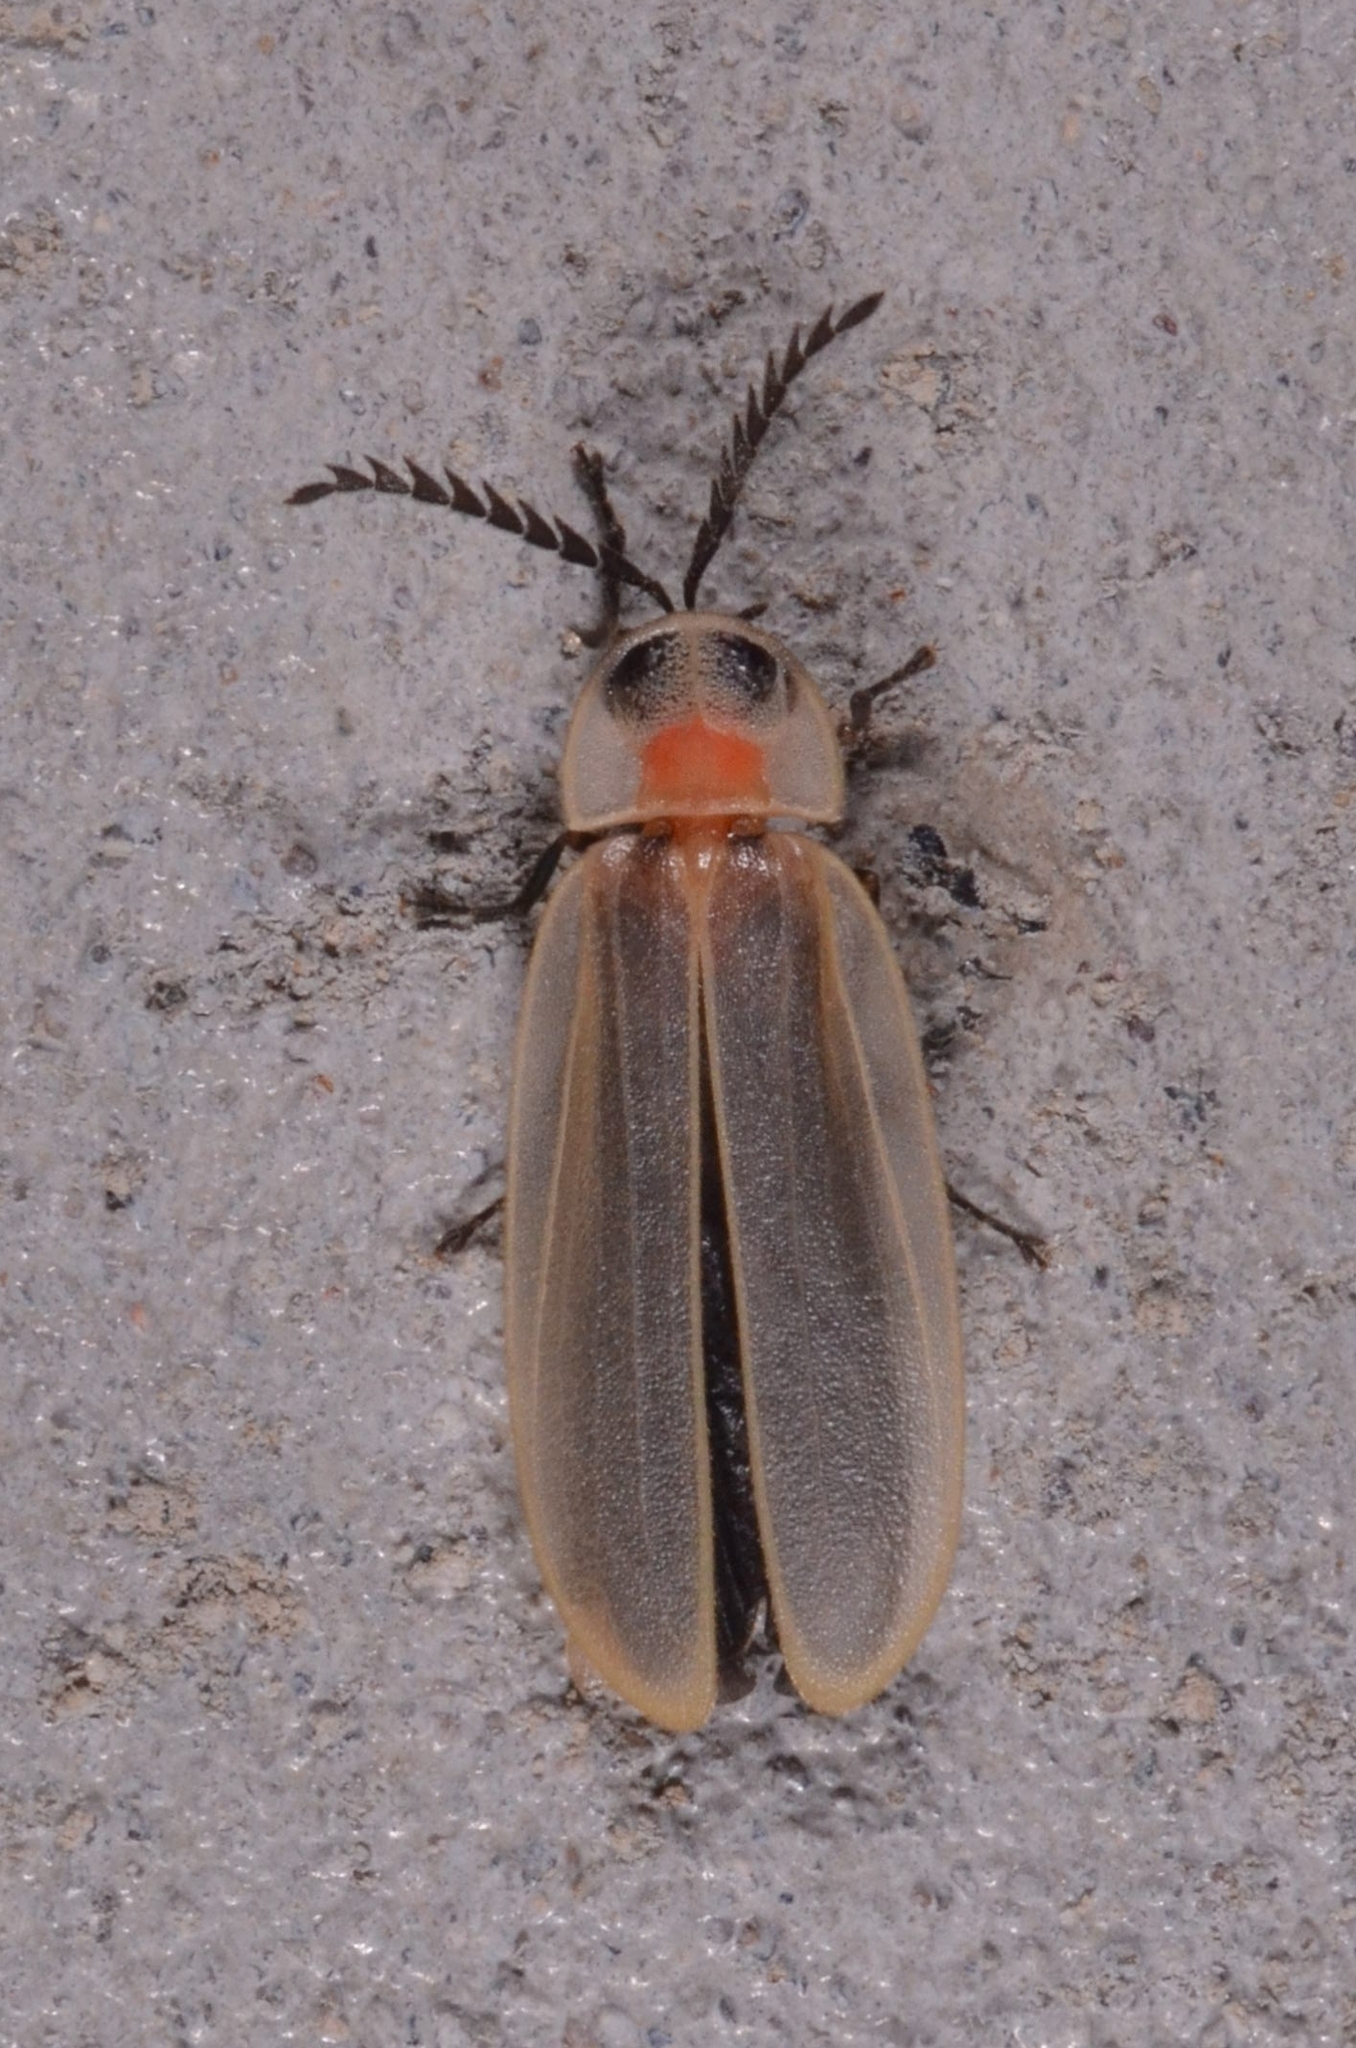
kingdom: Animalia
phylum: Arthropoda
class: Insecta
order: Coleoptera
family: Lampyridae
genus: Diaphanes
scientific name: Diaphanes lampyroides
